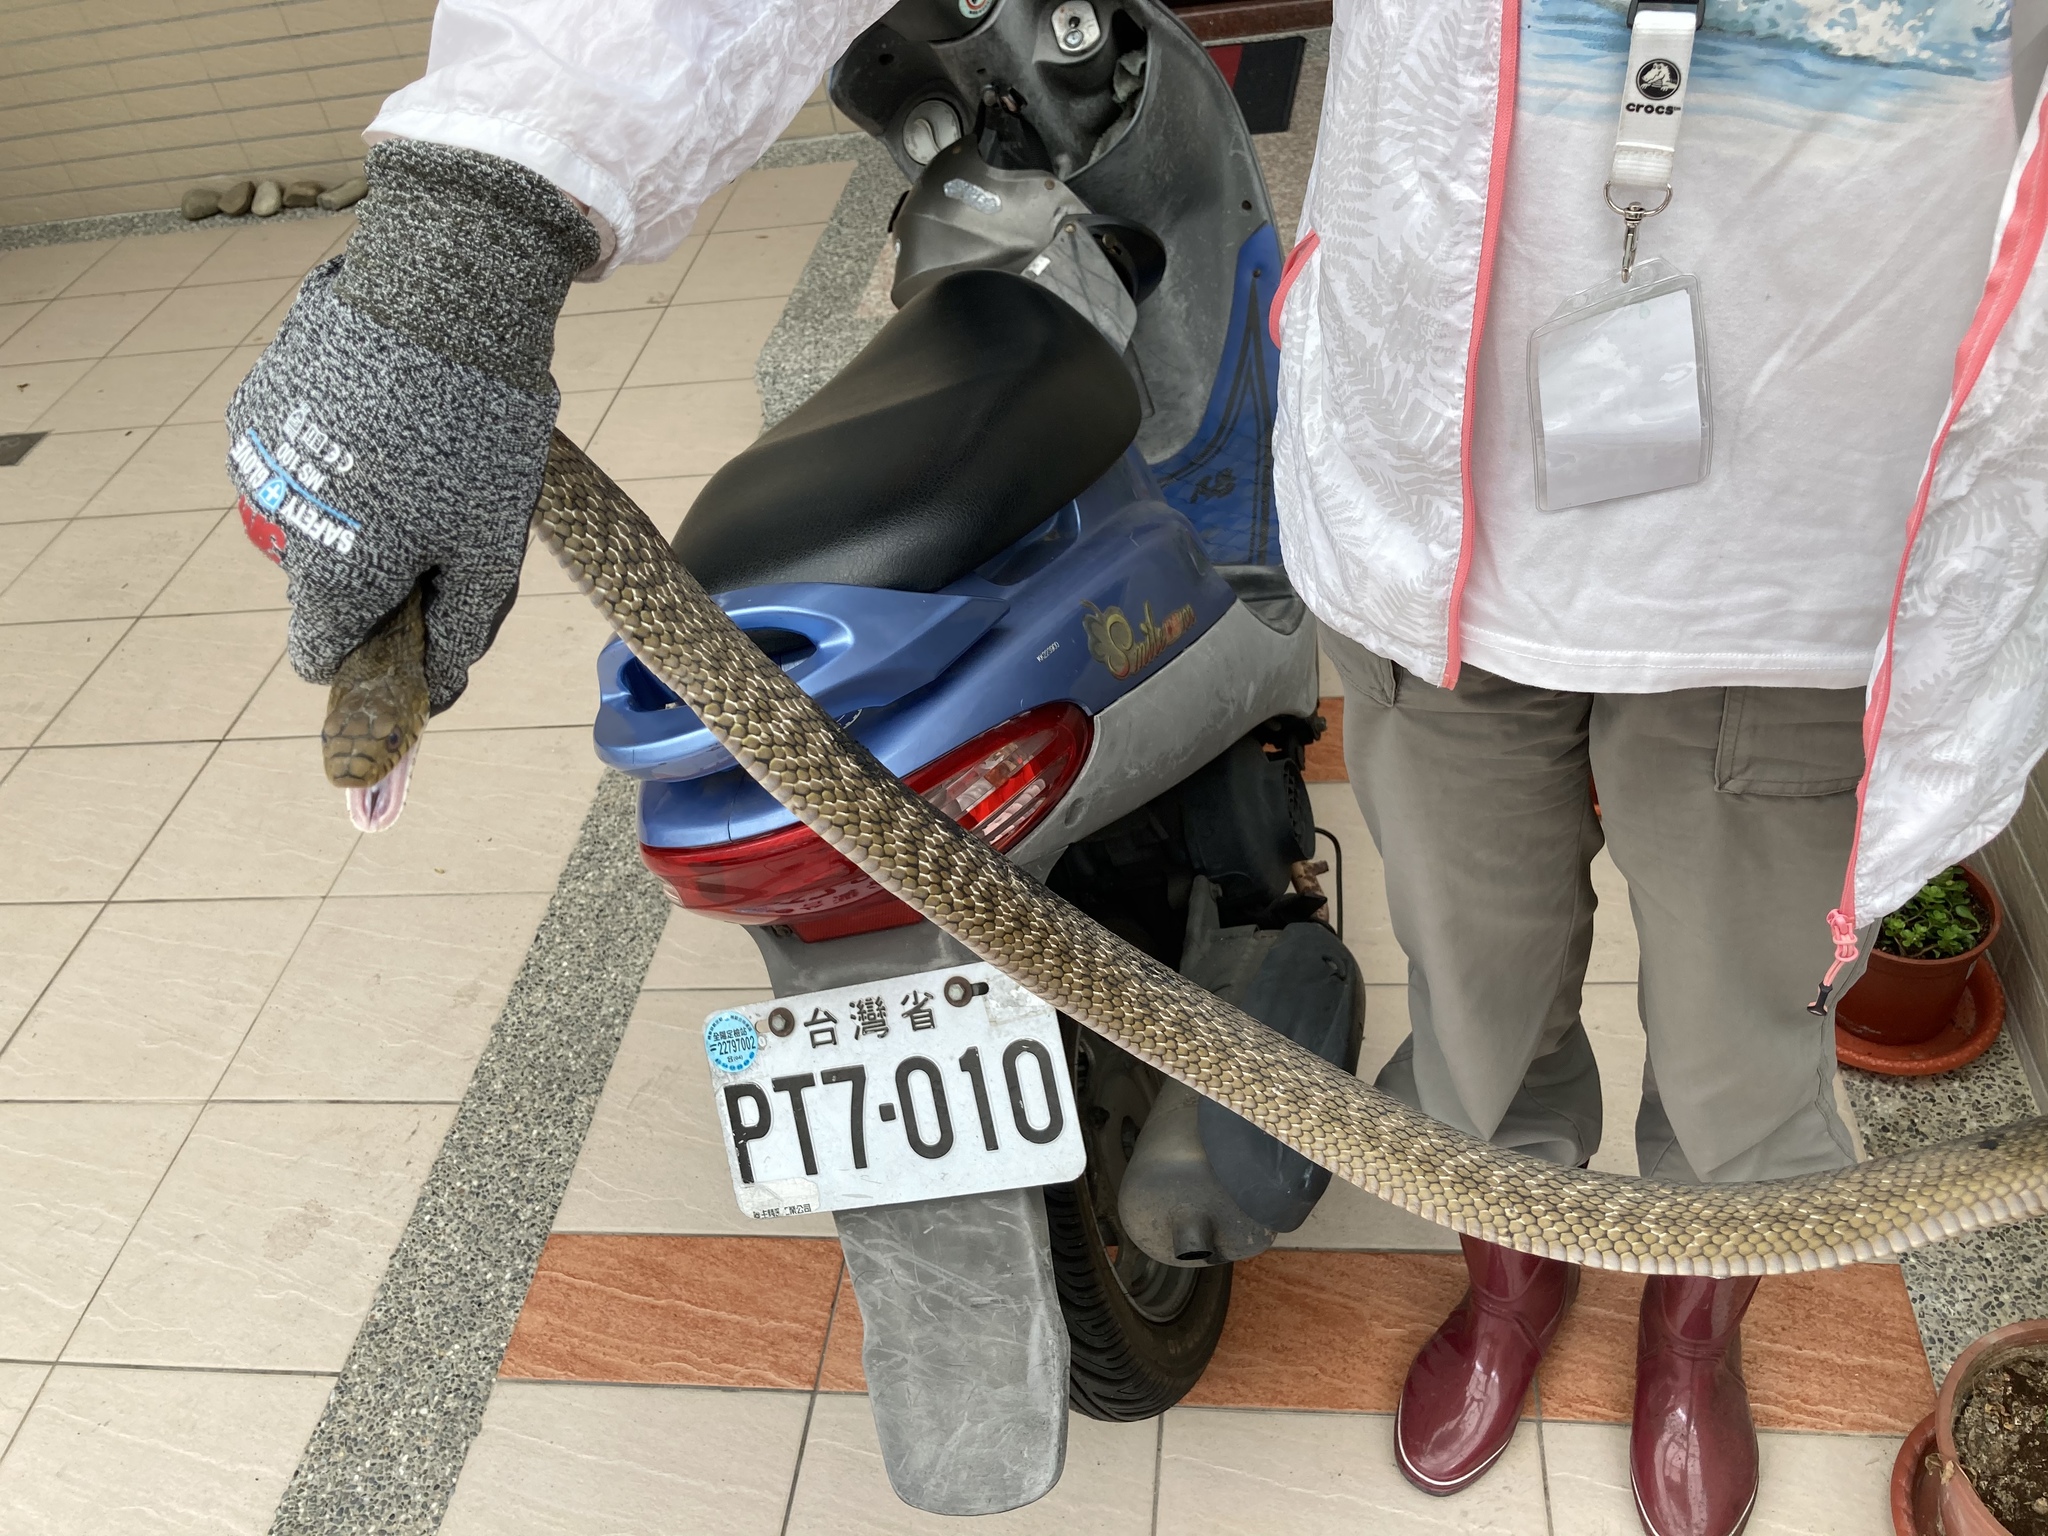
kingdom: Animalia
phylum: Chordata
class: Squamata
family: Colubridae
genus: Elaphe
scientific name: Elaphe carinata
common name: Taiwan stink snake
